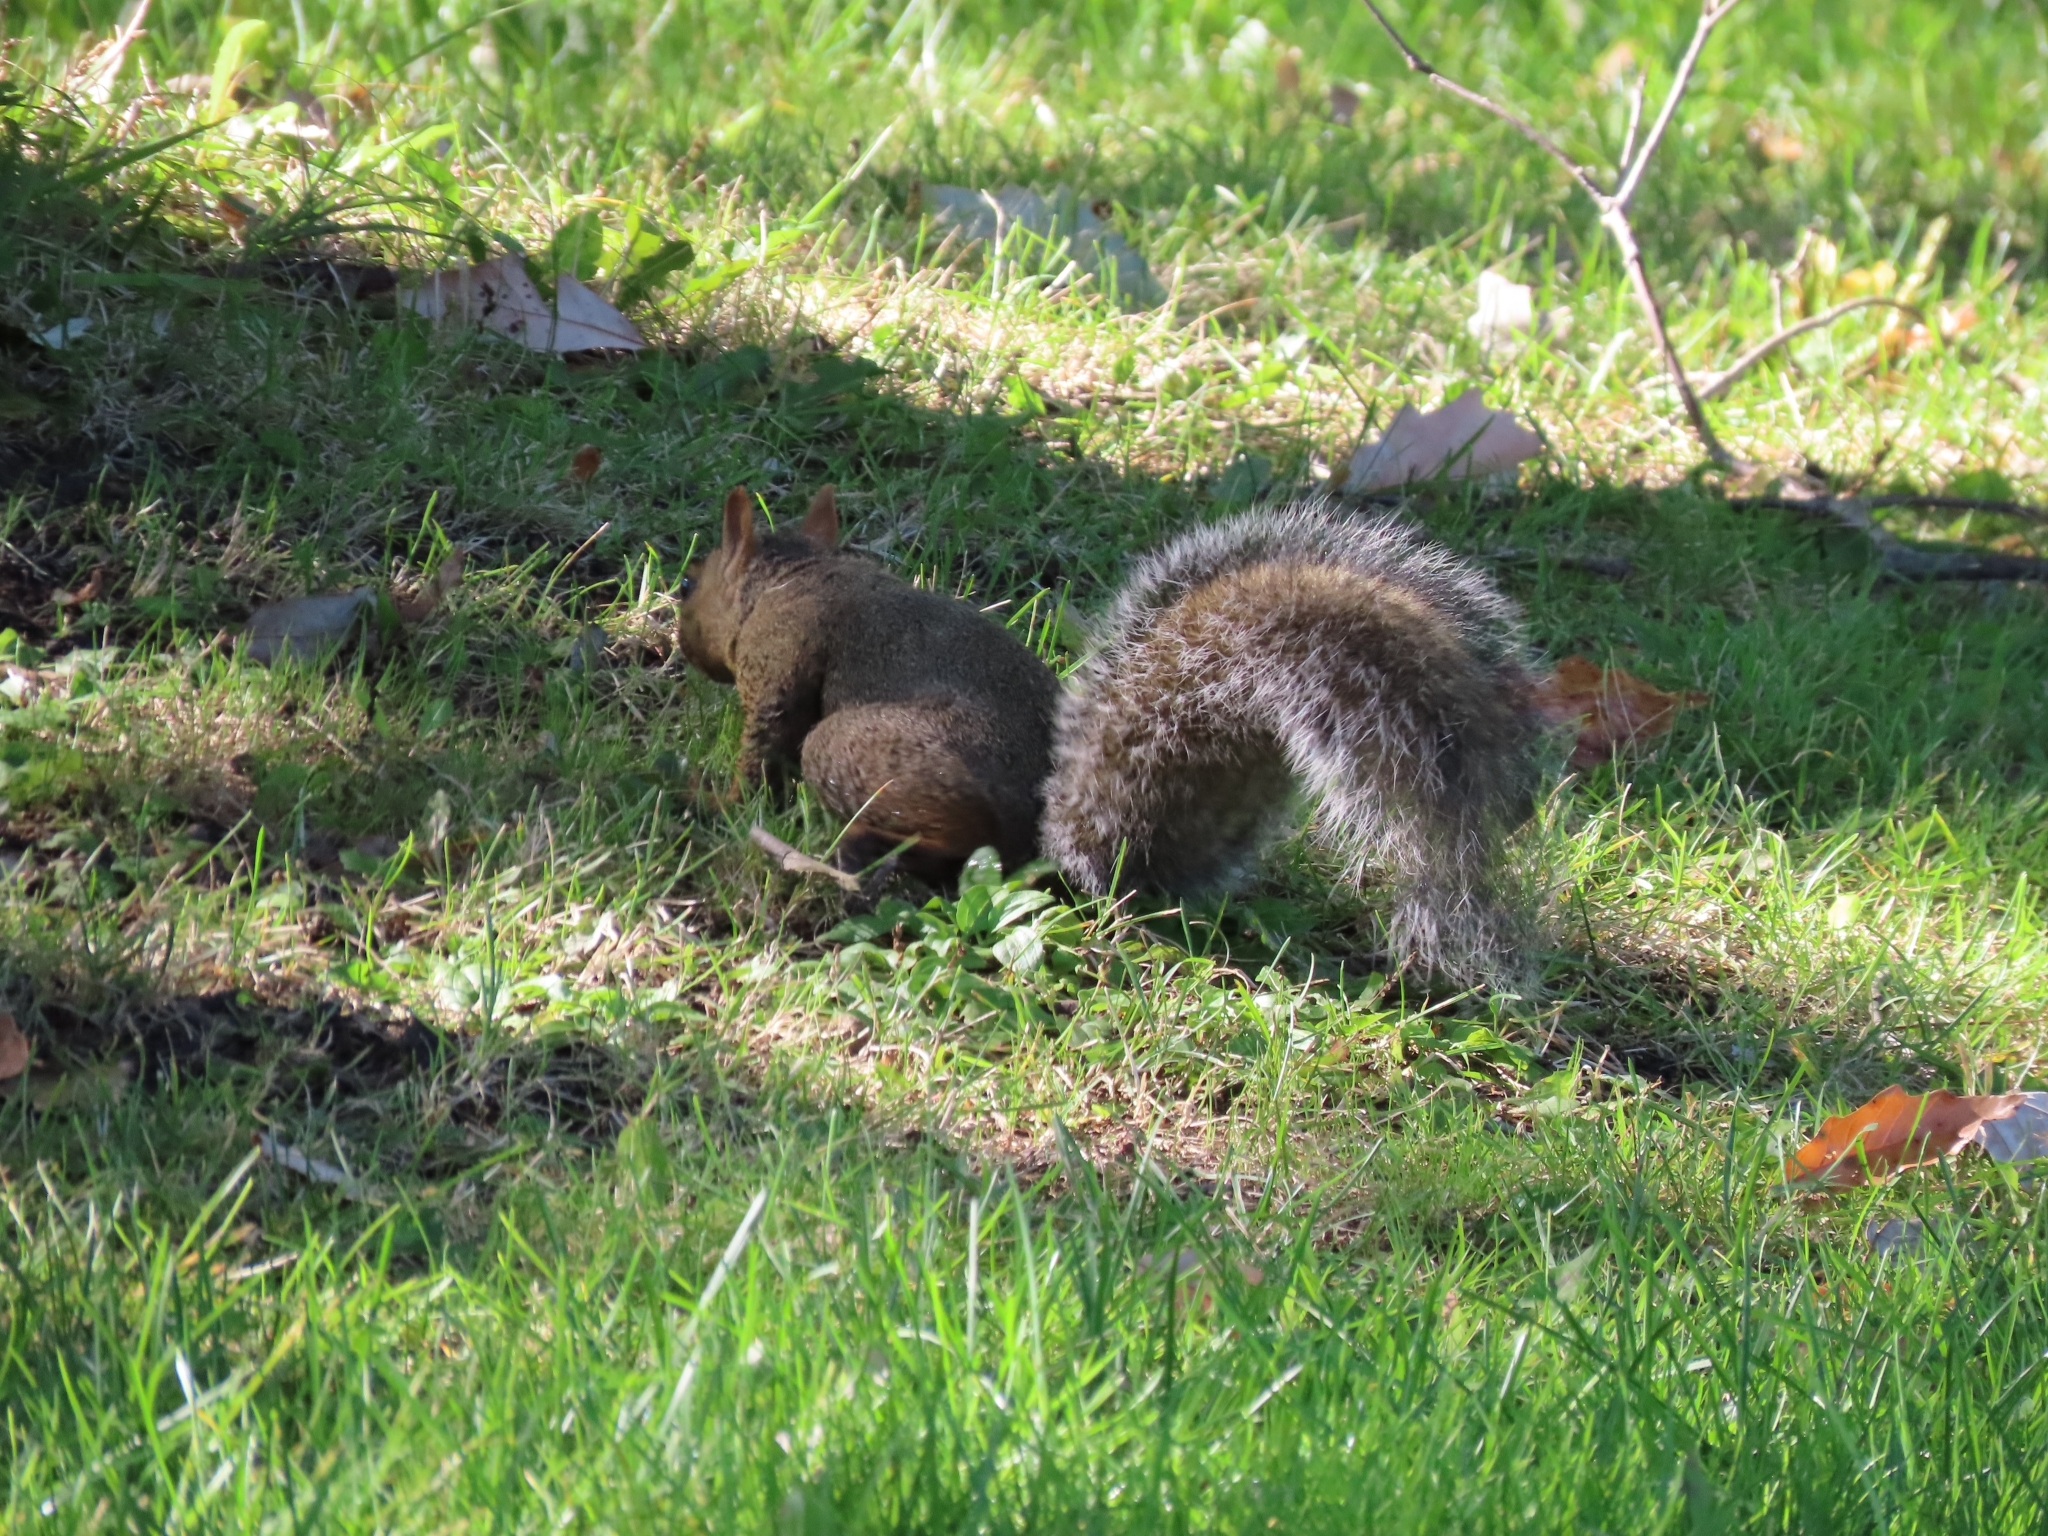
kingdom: Animalia
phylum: Chordata
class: Mammalia
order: Rodentia
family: Sciuridae
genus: Sciurus
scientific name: Sciurus carolinensis
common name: Eastern gray squirrel
